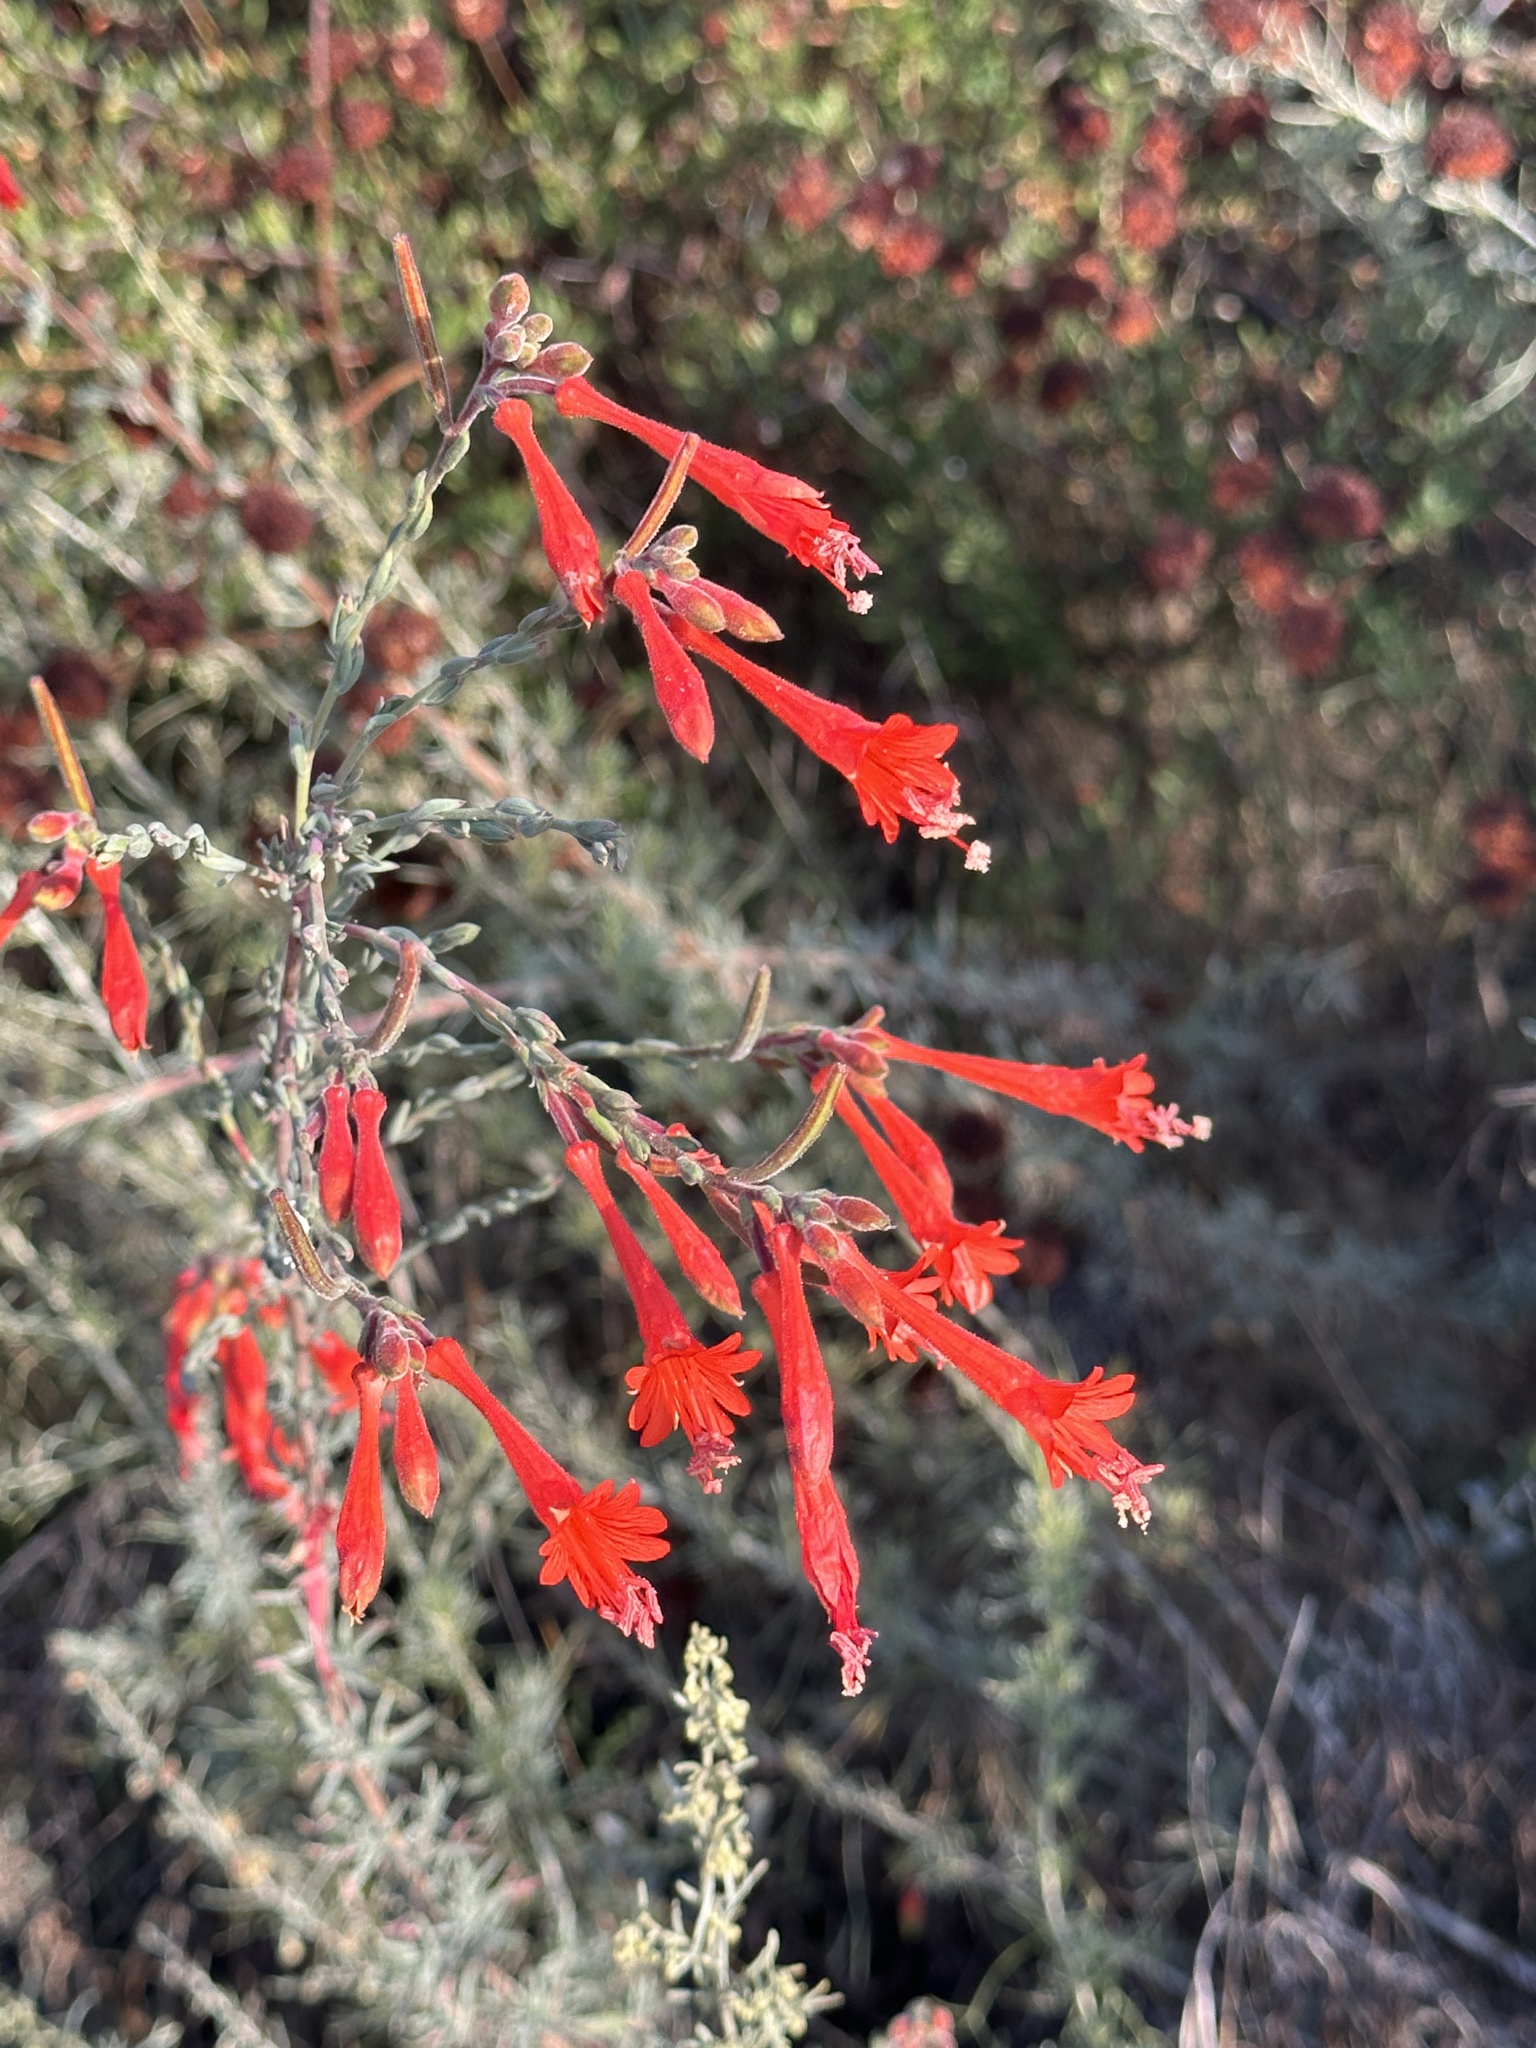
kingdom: Plantae
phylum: Tracheophyta
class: Magnoliopsida
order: Myrtales
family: Onagraceae
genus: Epilobium
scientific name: Epilobium canum
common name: California-fuchsia
